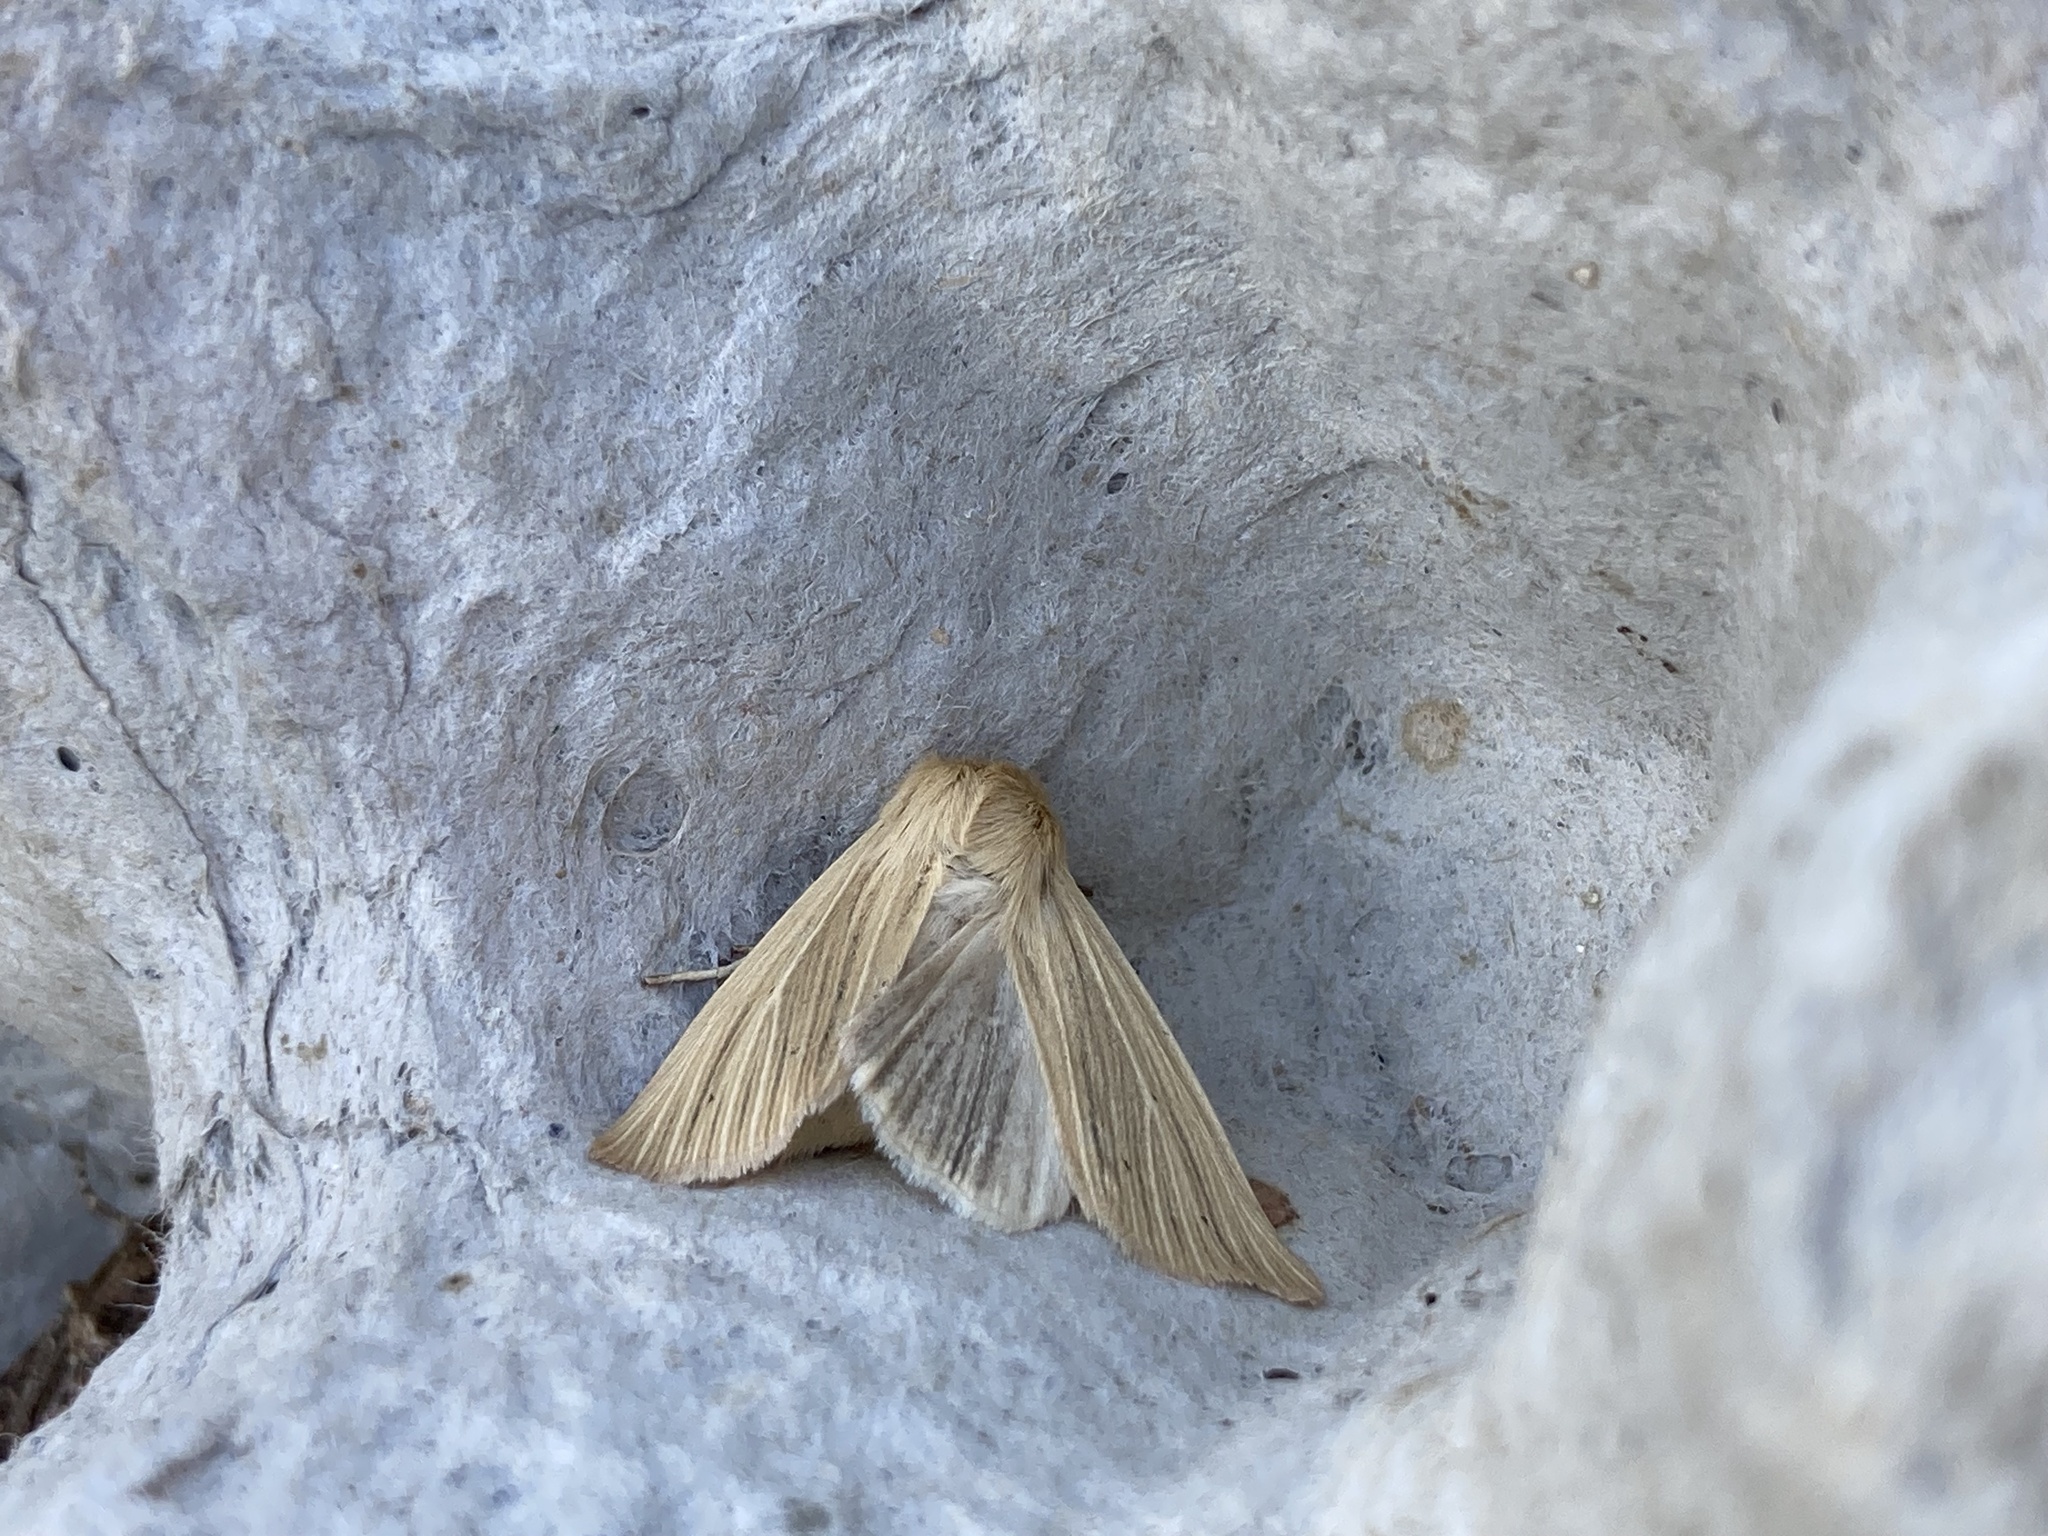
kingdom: Animalia
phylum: Arthropoda
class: Insecta
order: Lepidoptera
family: Noctuidae
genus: Mythimna
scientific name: Mythimna impura
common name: Smoky wainscot
